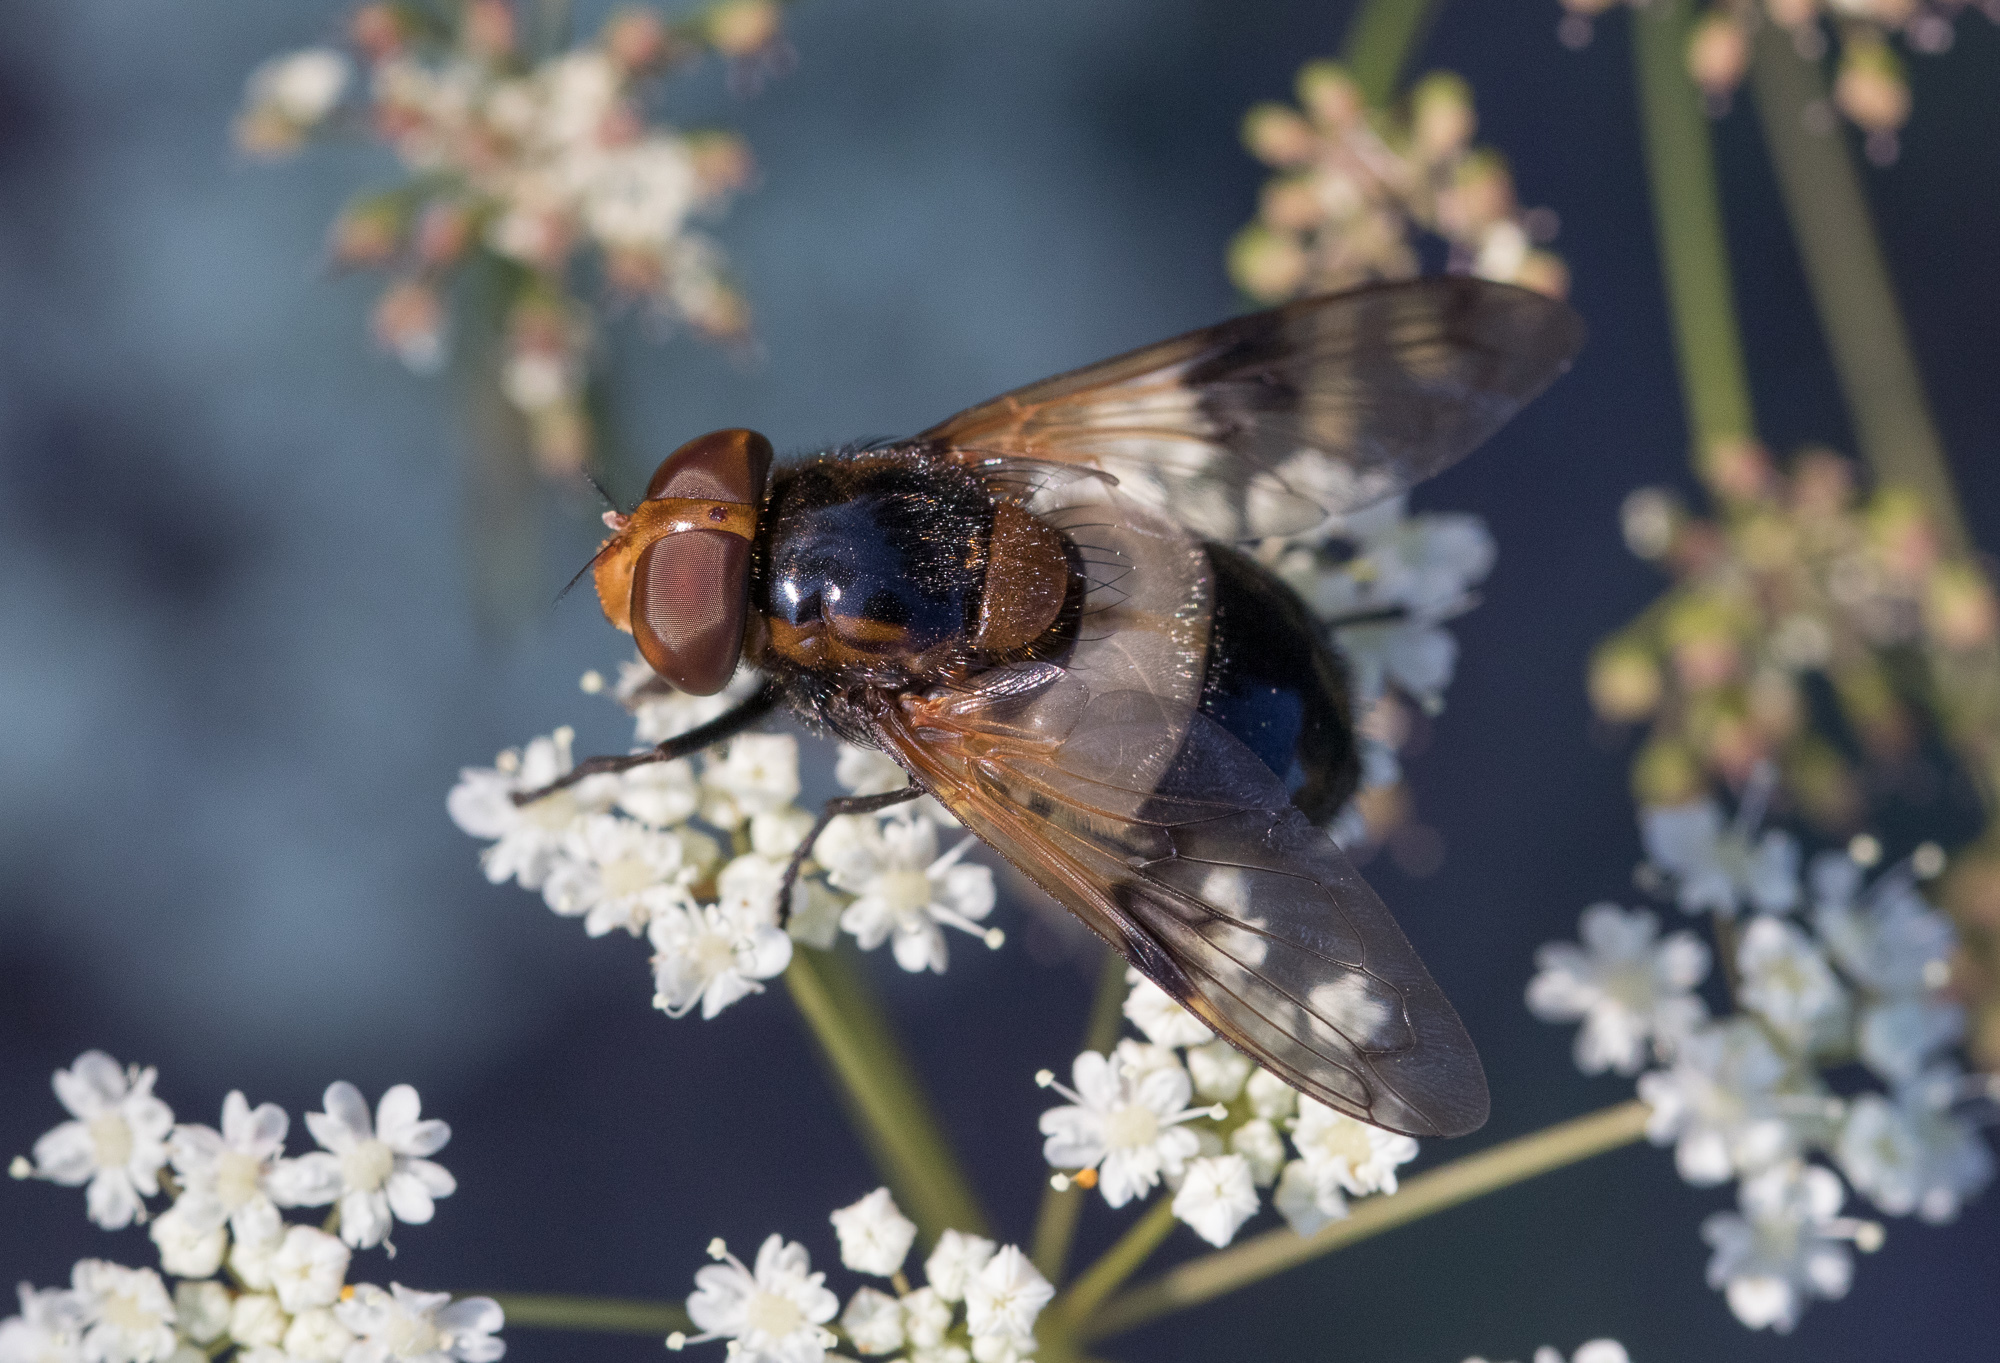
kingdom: Animalia
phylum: Arthropoda
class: Insecta
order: Diptera
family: Syrphidae
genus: Volucella
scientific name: Volucella pellucens
